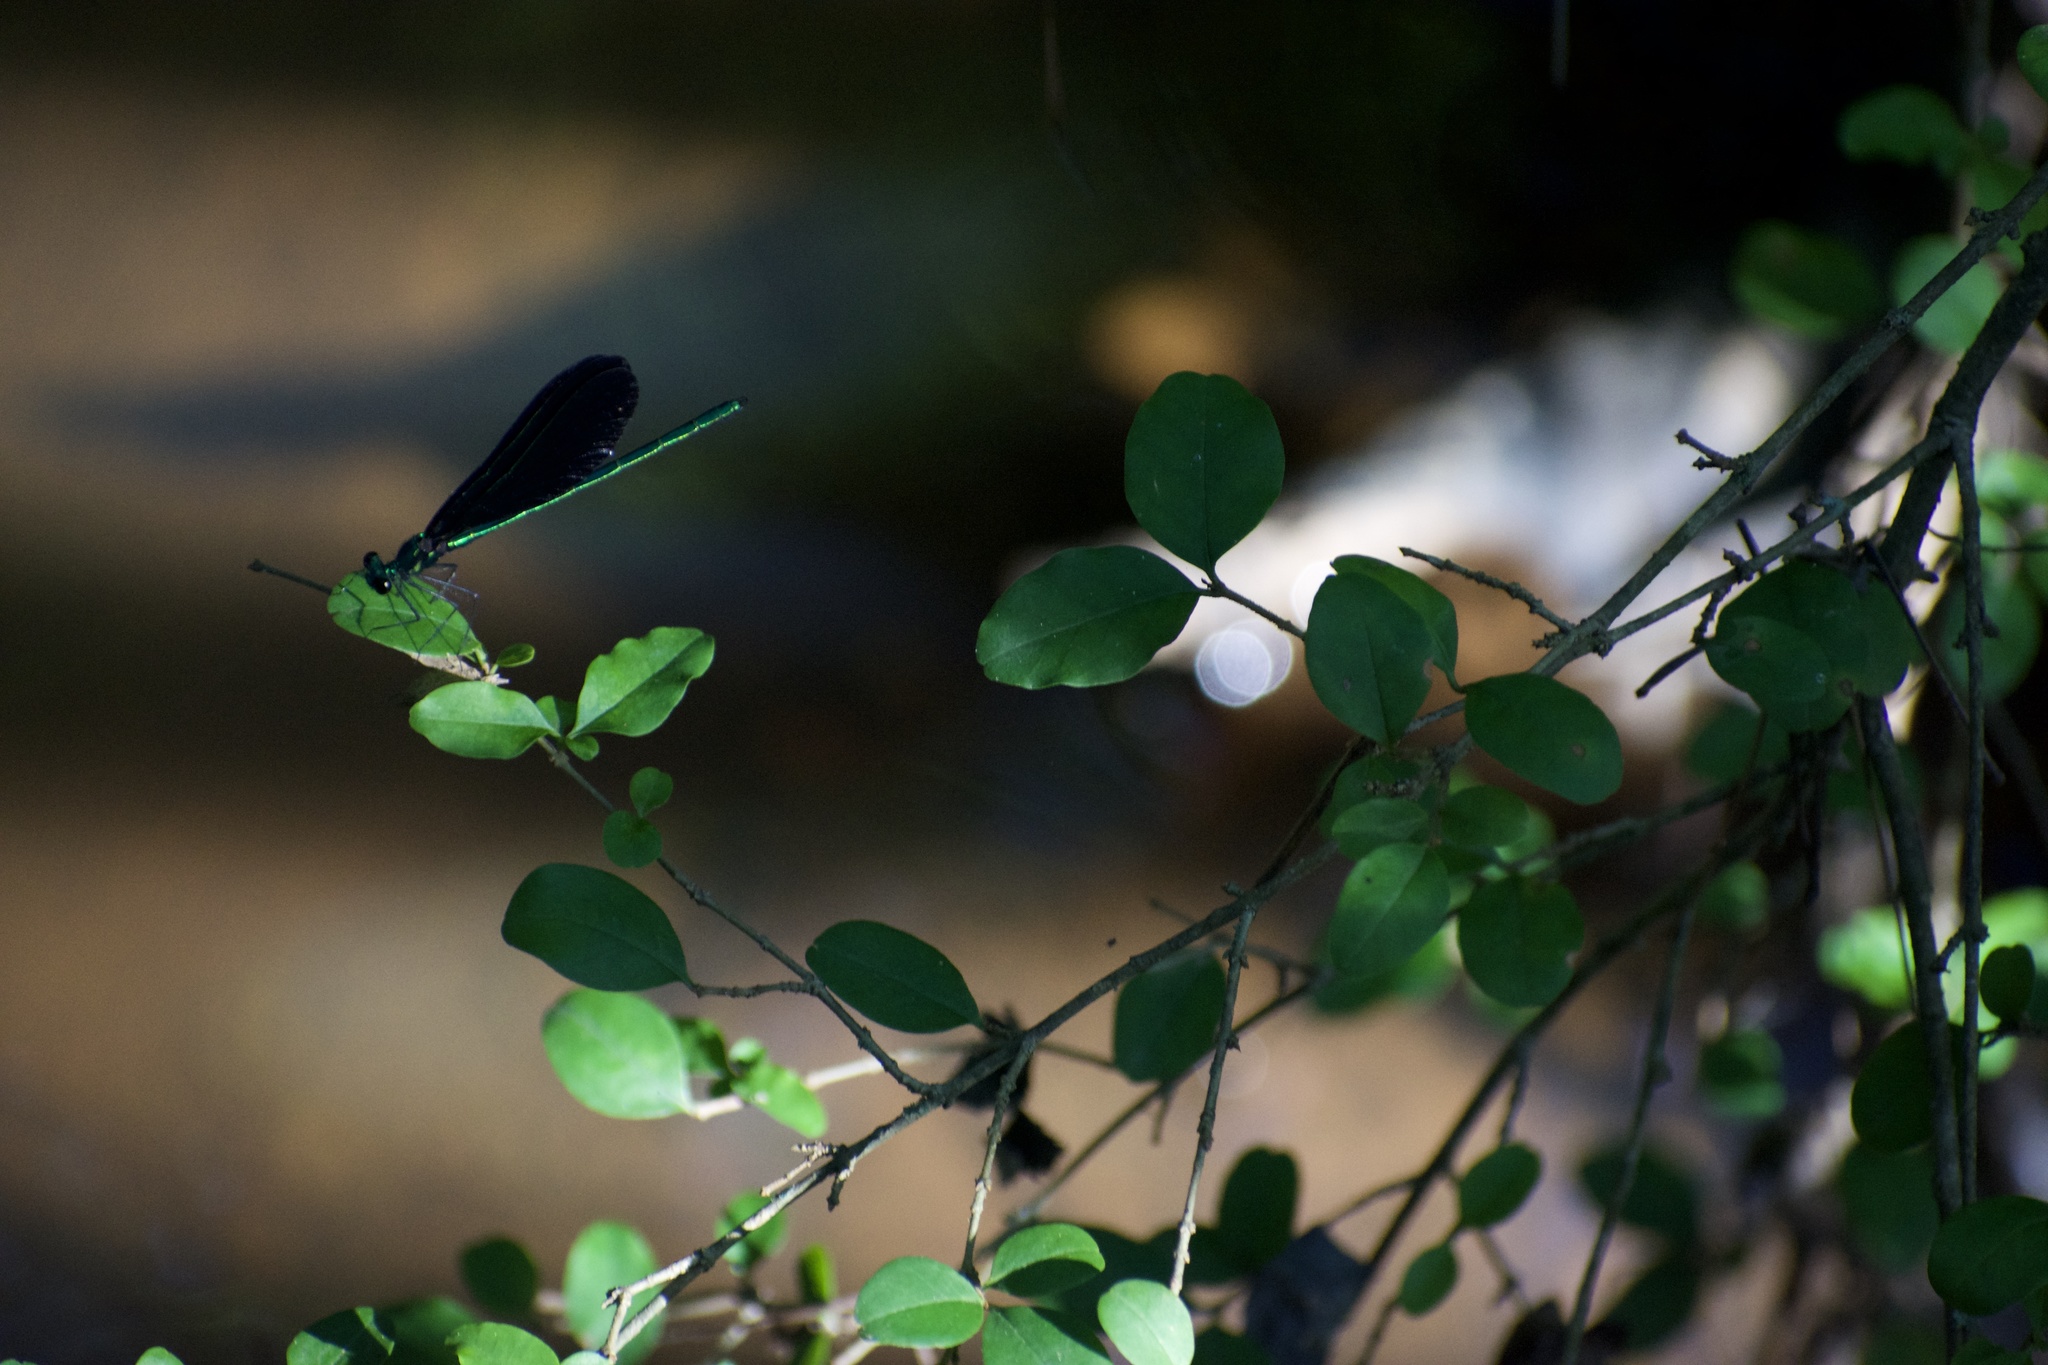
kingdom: Animalia
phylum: Arthropoda
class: Insecta
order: Odonata
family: Calopterygidae
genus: Calopteryx
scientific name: Calopteryx maculata
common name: Ebony jewelwing
